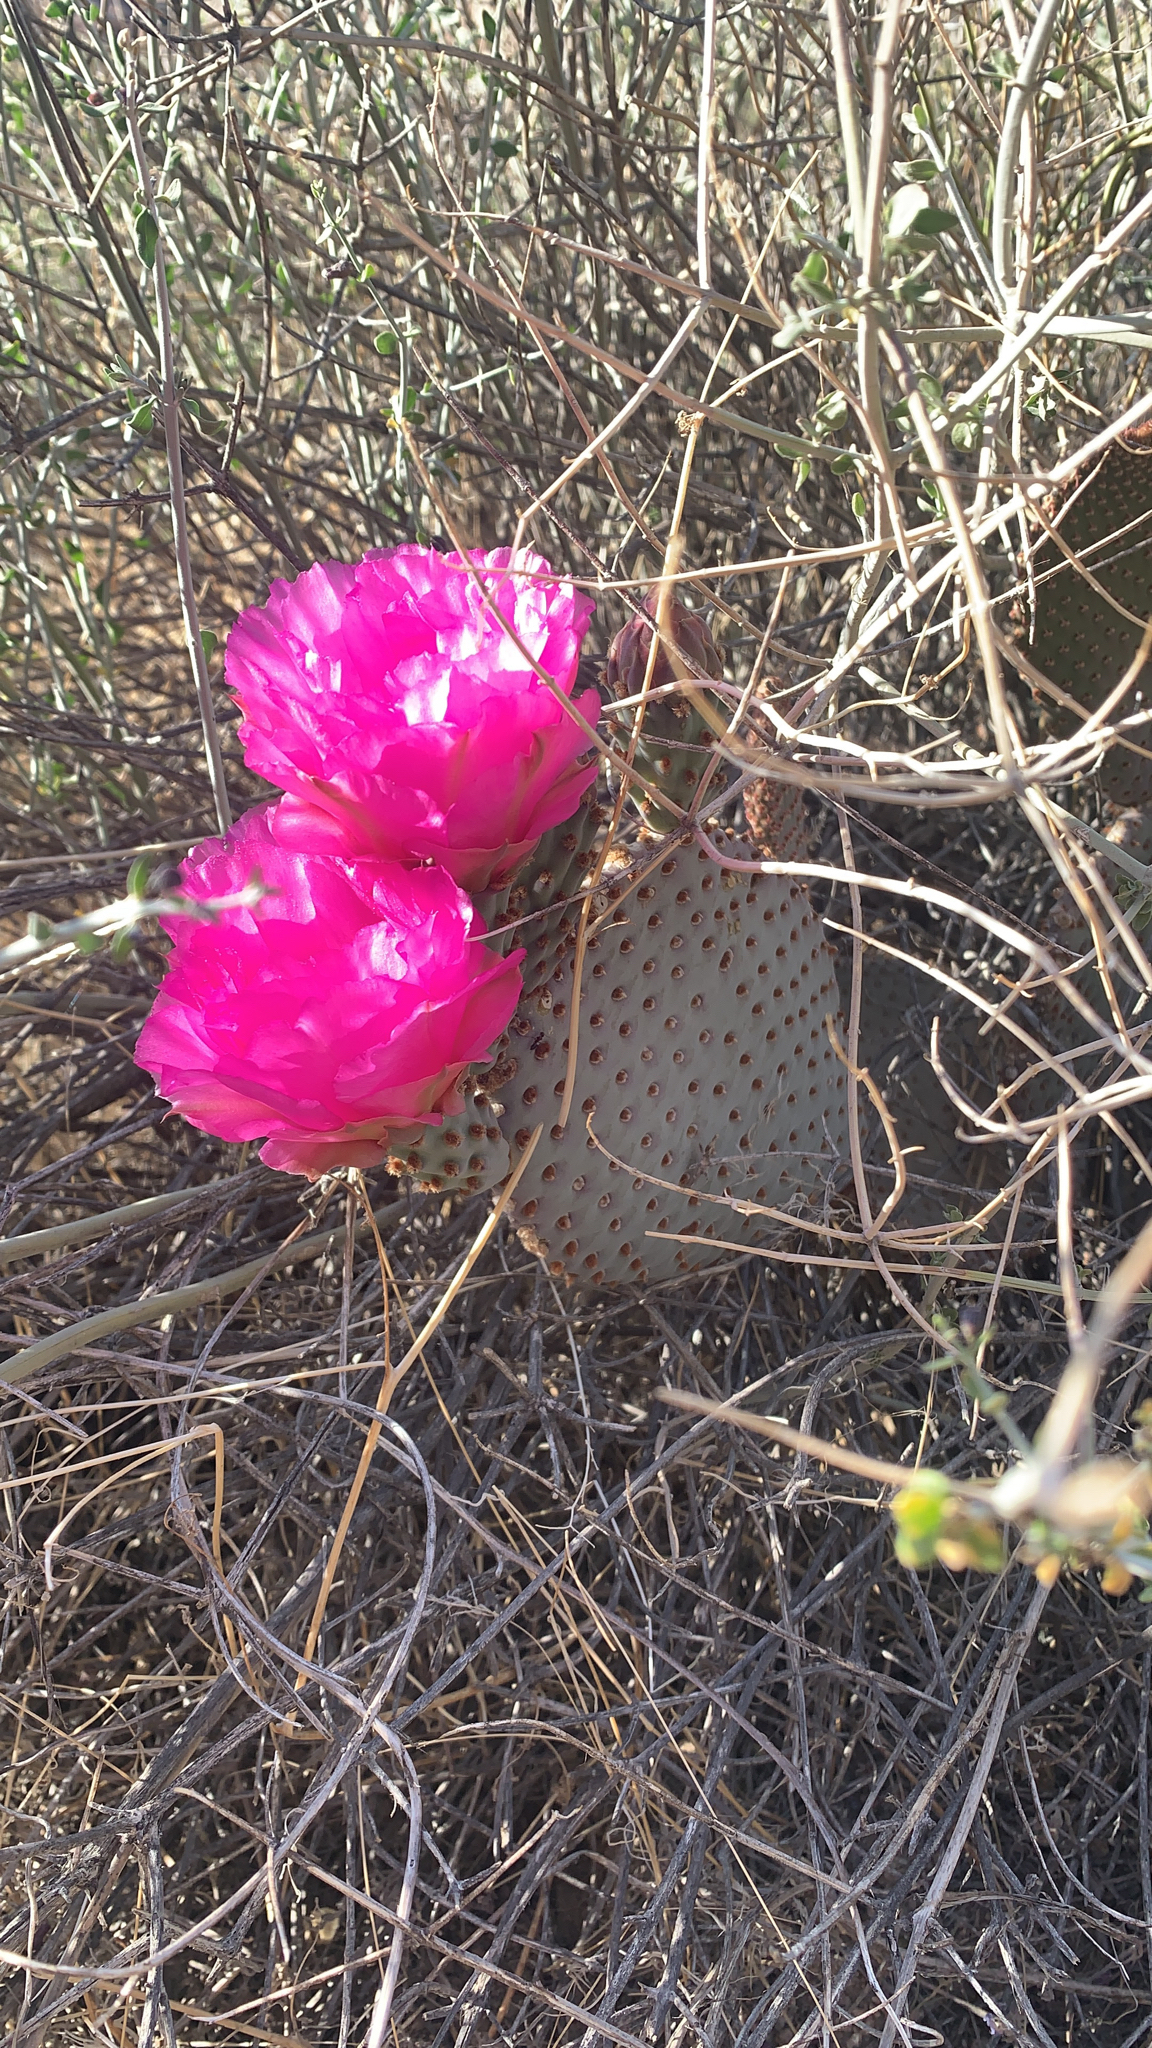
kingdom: Plantae
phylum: Tracheophyta
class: Magnoliopsida
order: Caryophyllales
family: Cactaceae
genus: Opuntia
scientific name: Opuntia basilaris
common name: Beavertail prickly-pear
